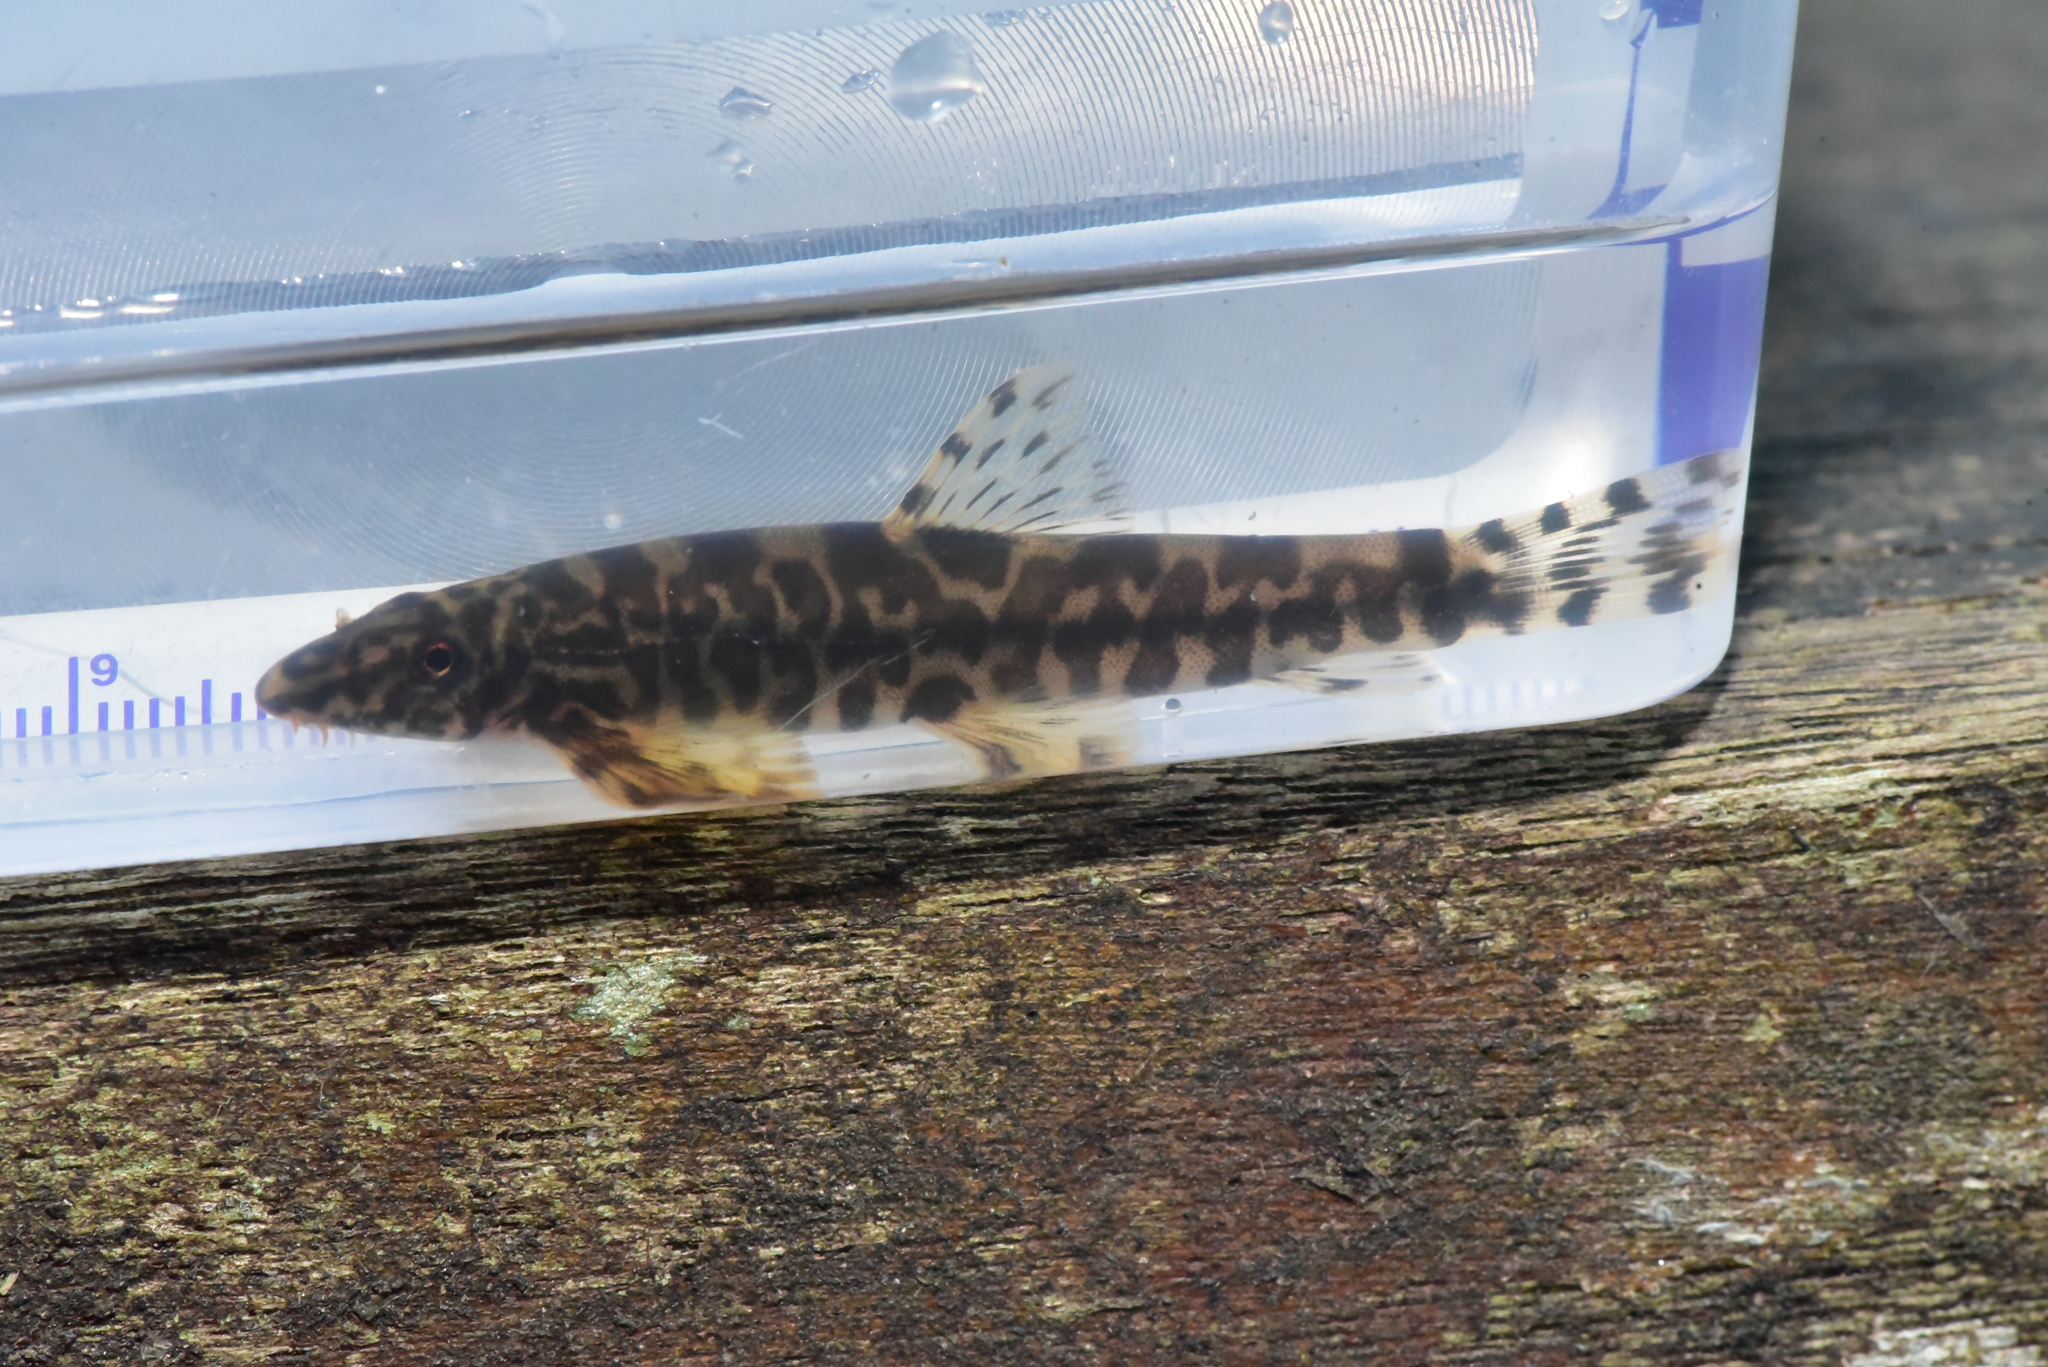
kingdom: Animalia
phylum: Chordata
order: Cypriniformes
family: Balitoridae
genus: Formosania
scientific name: Formosania lacustre
